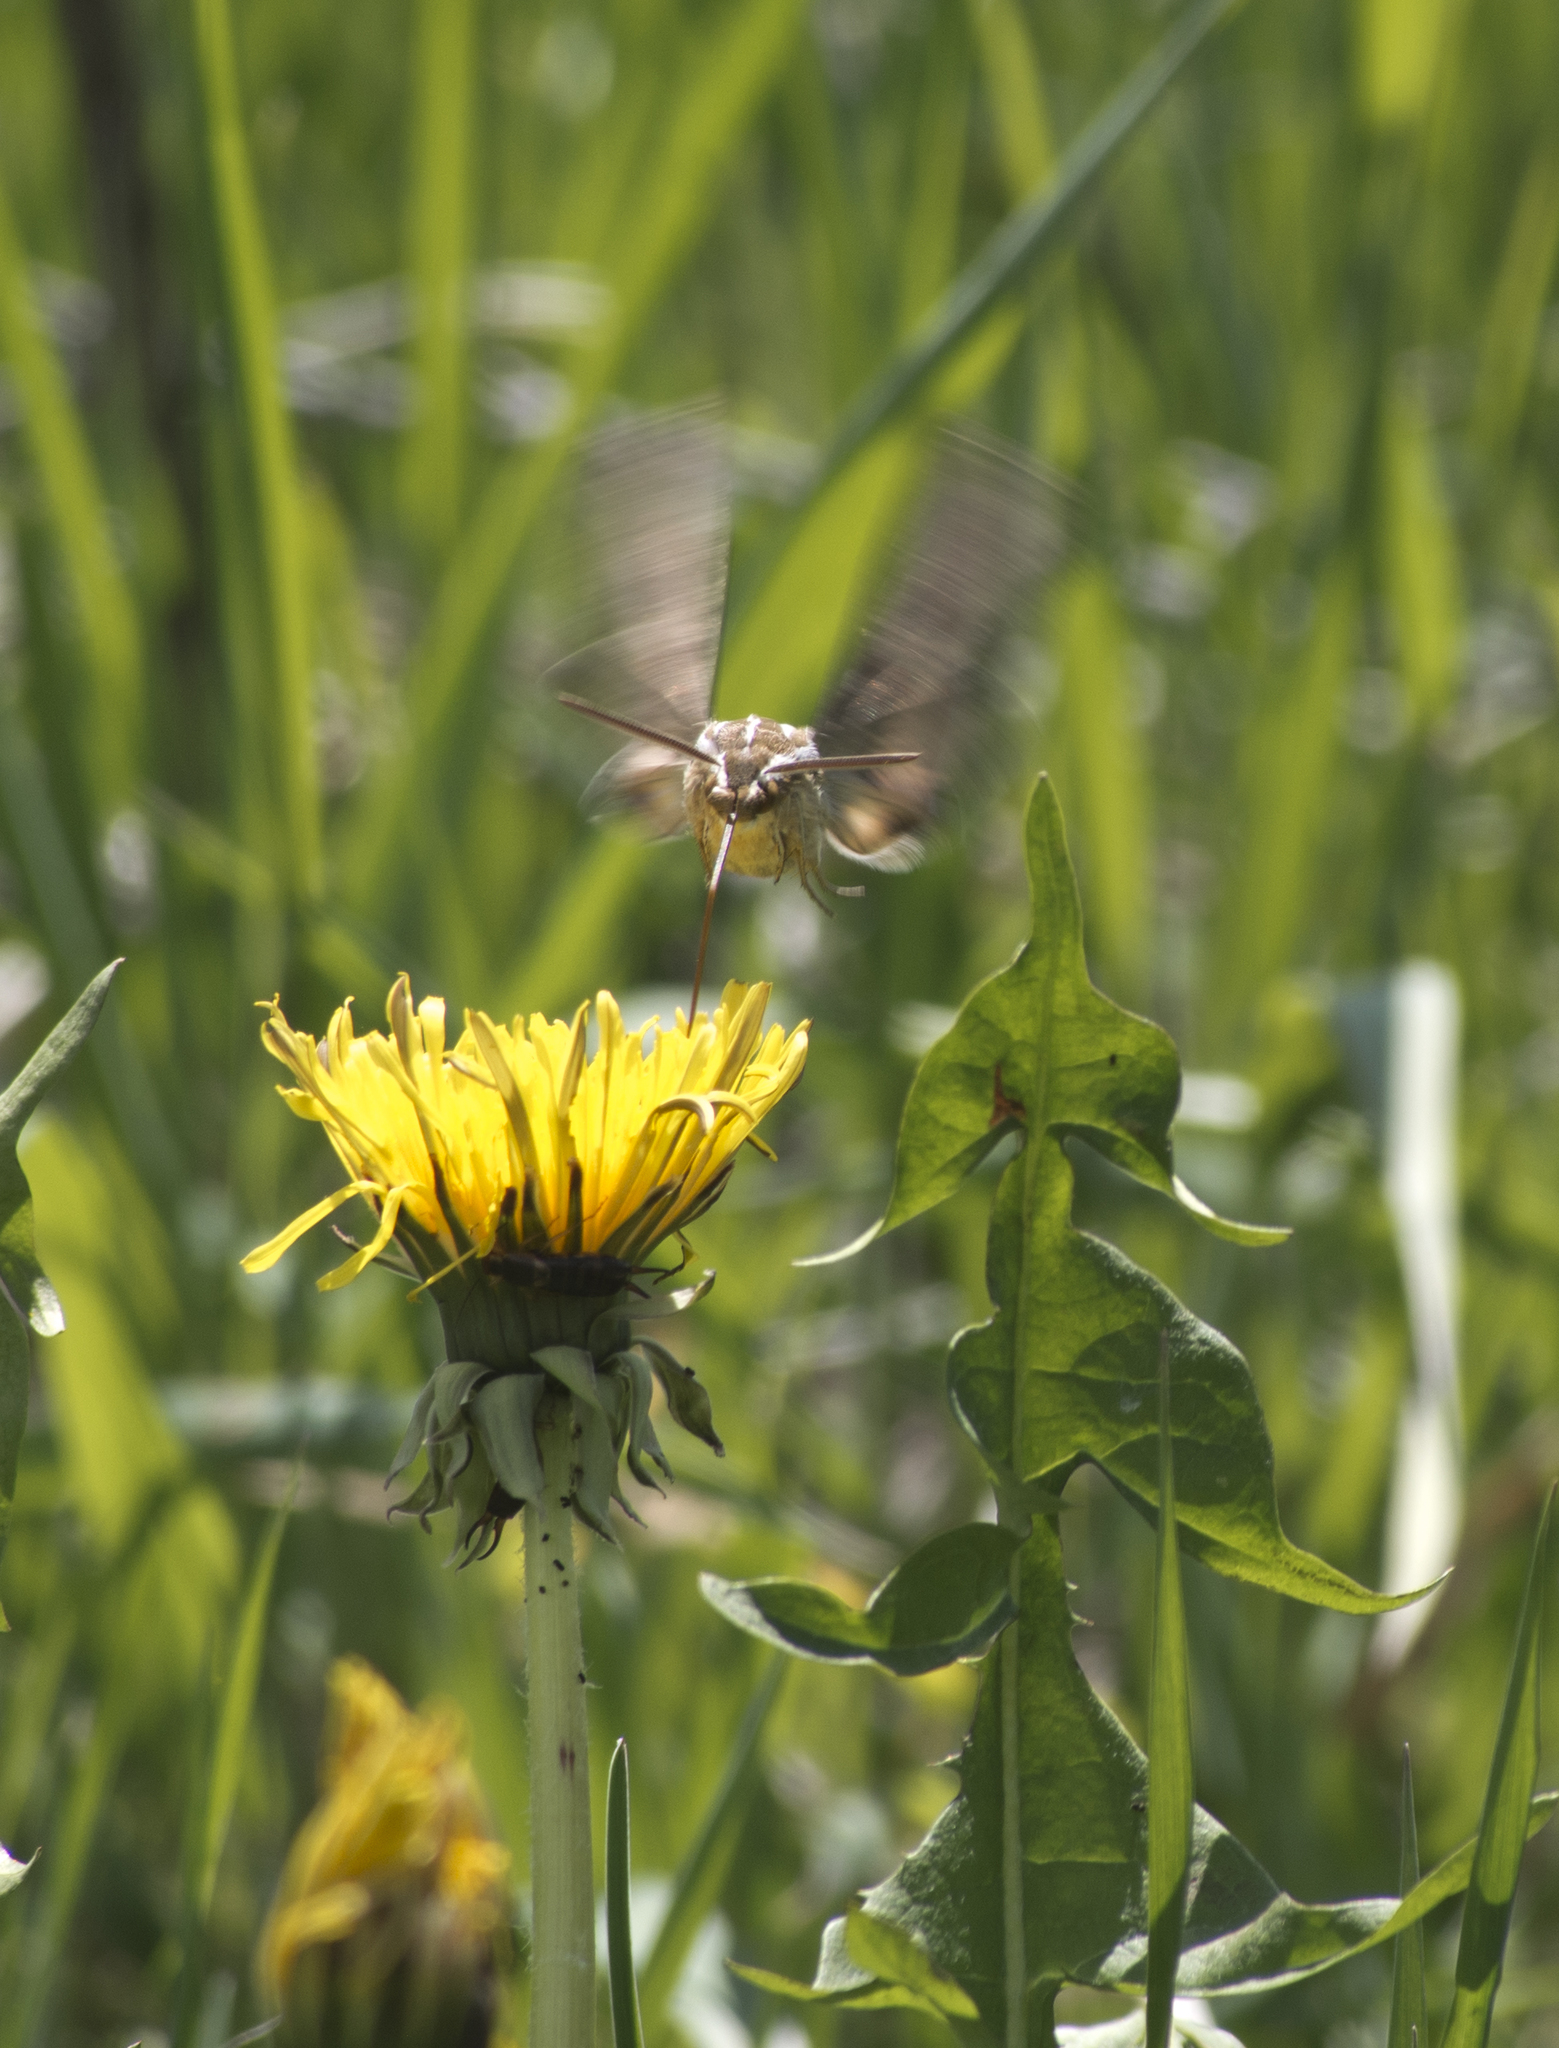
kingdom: Animalia
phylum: Arthropoda
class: Insecta
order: Lepidoptera
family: Sphingidae
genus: Hyles
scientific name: Hyles lineata
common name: White-lined sphinx
